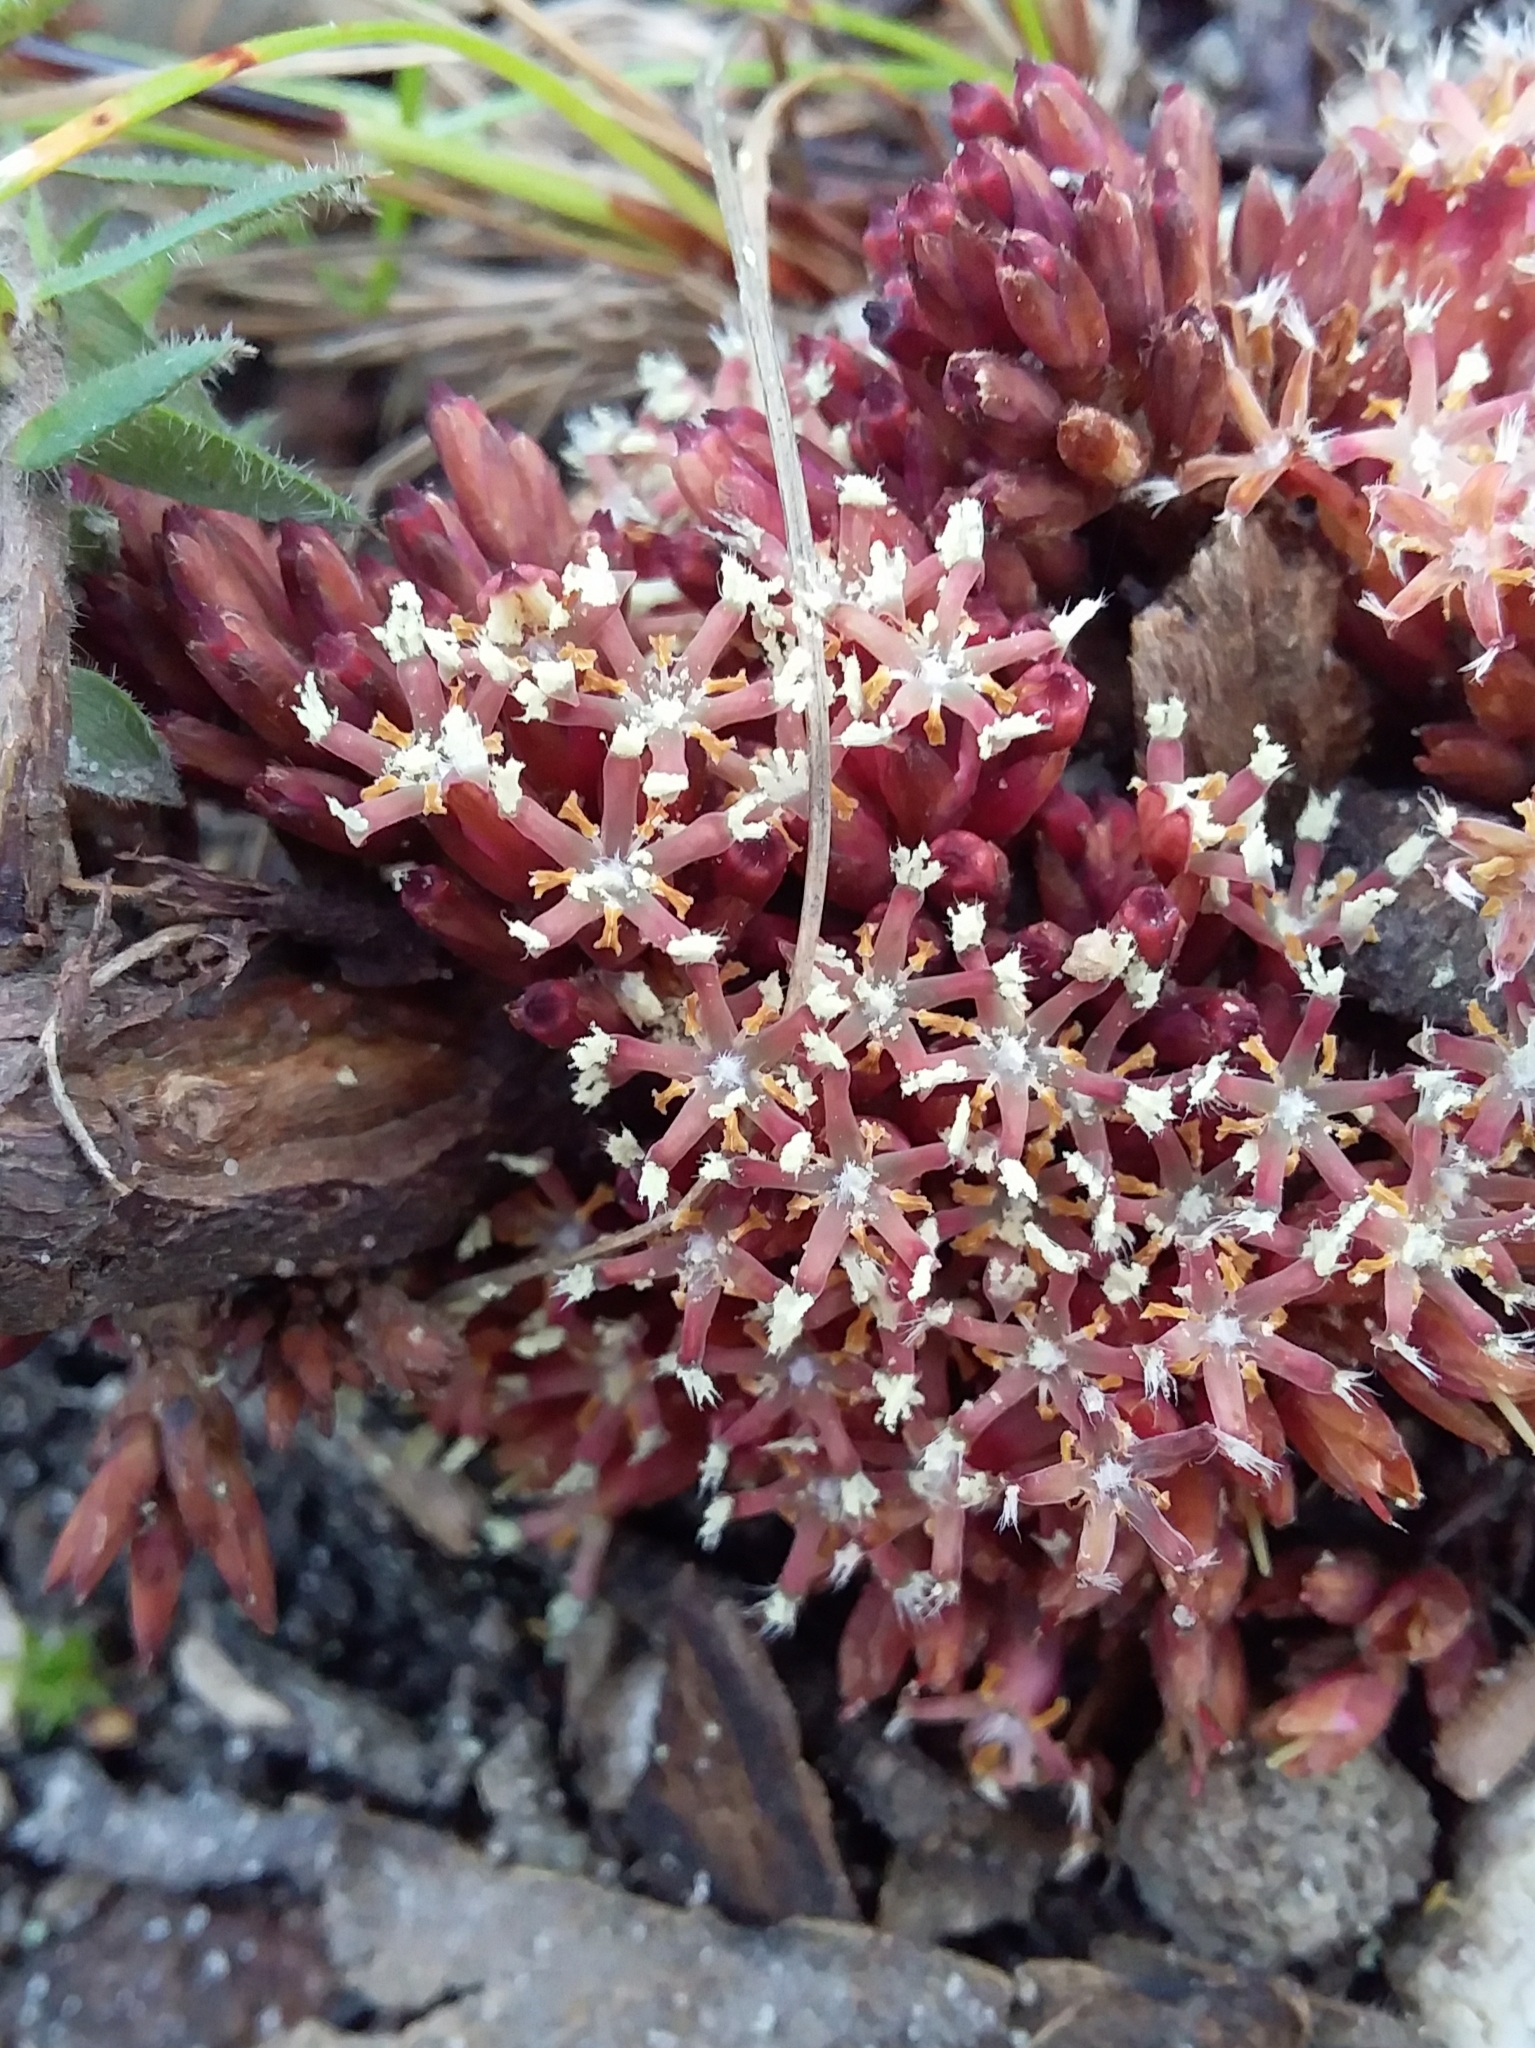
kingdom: Plantae
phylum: Tracheophyta
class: Magnoliopsida
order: Ericales
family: Ericaceae
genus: Acrotriche
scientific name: Acrotriche fasciculiflora
